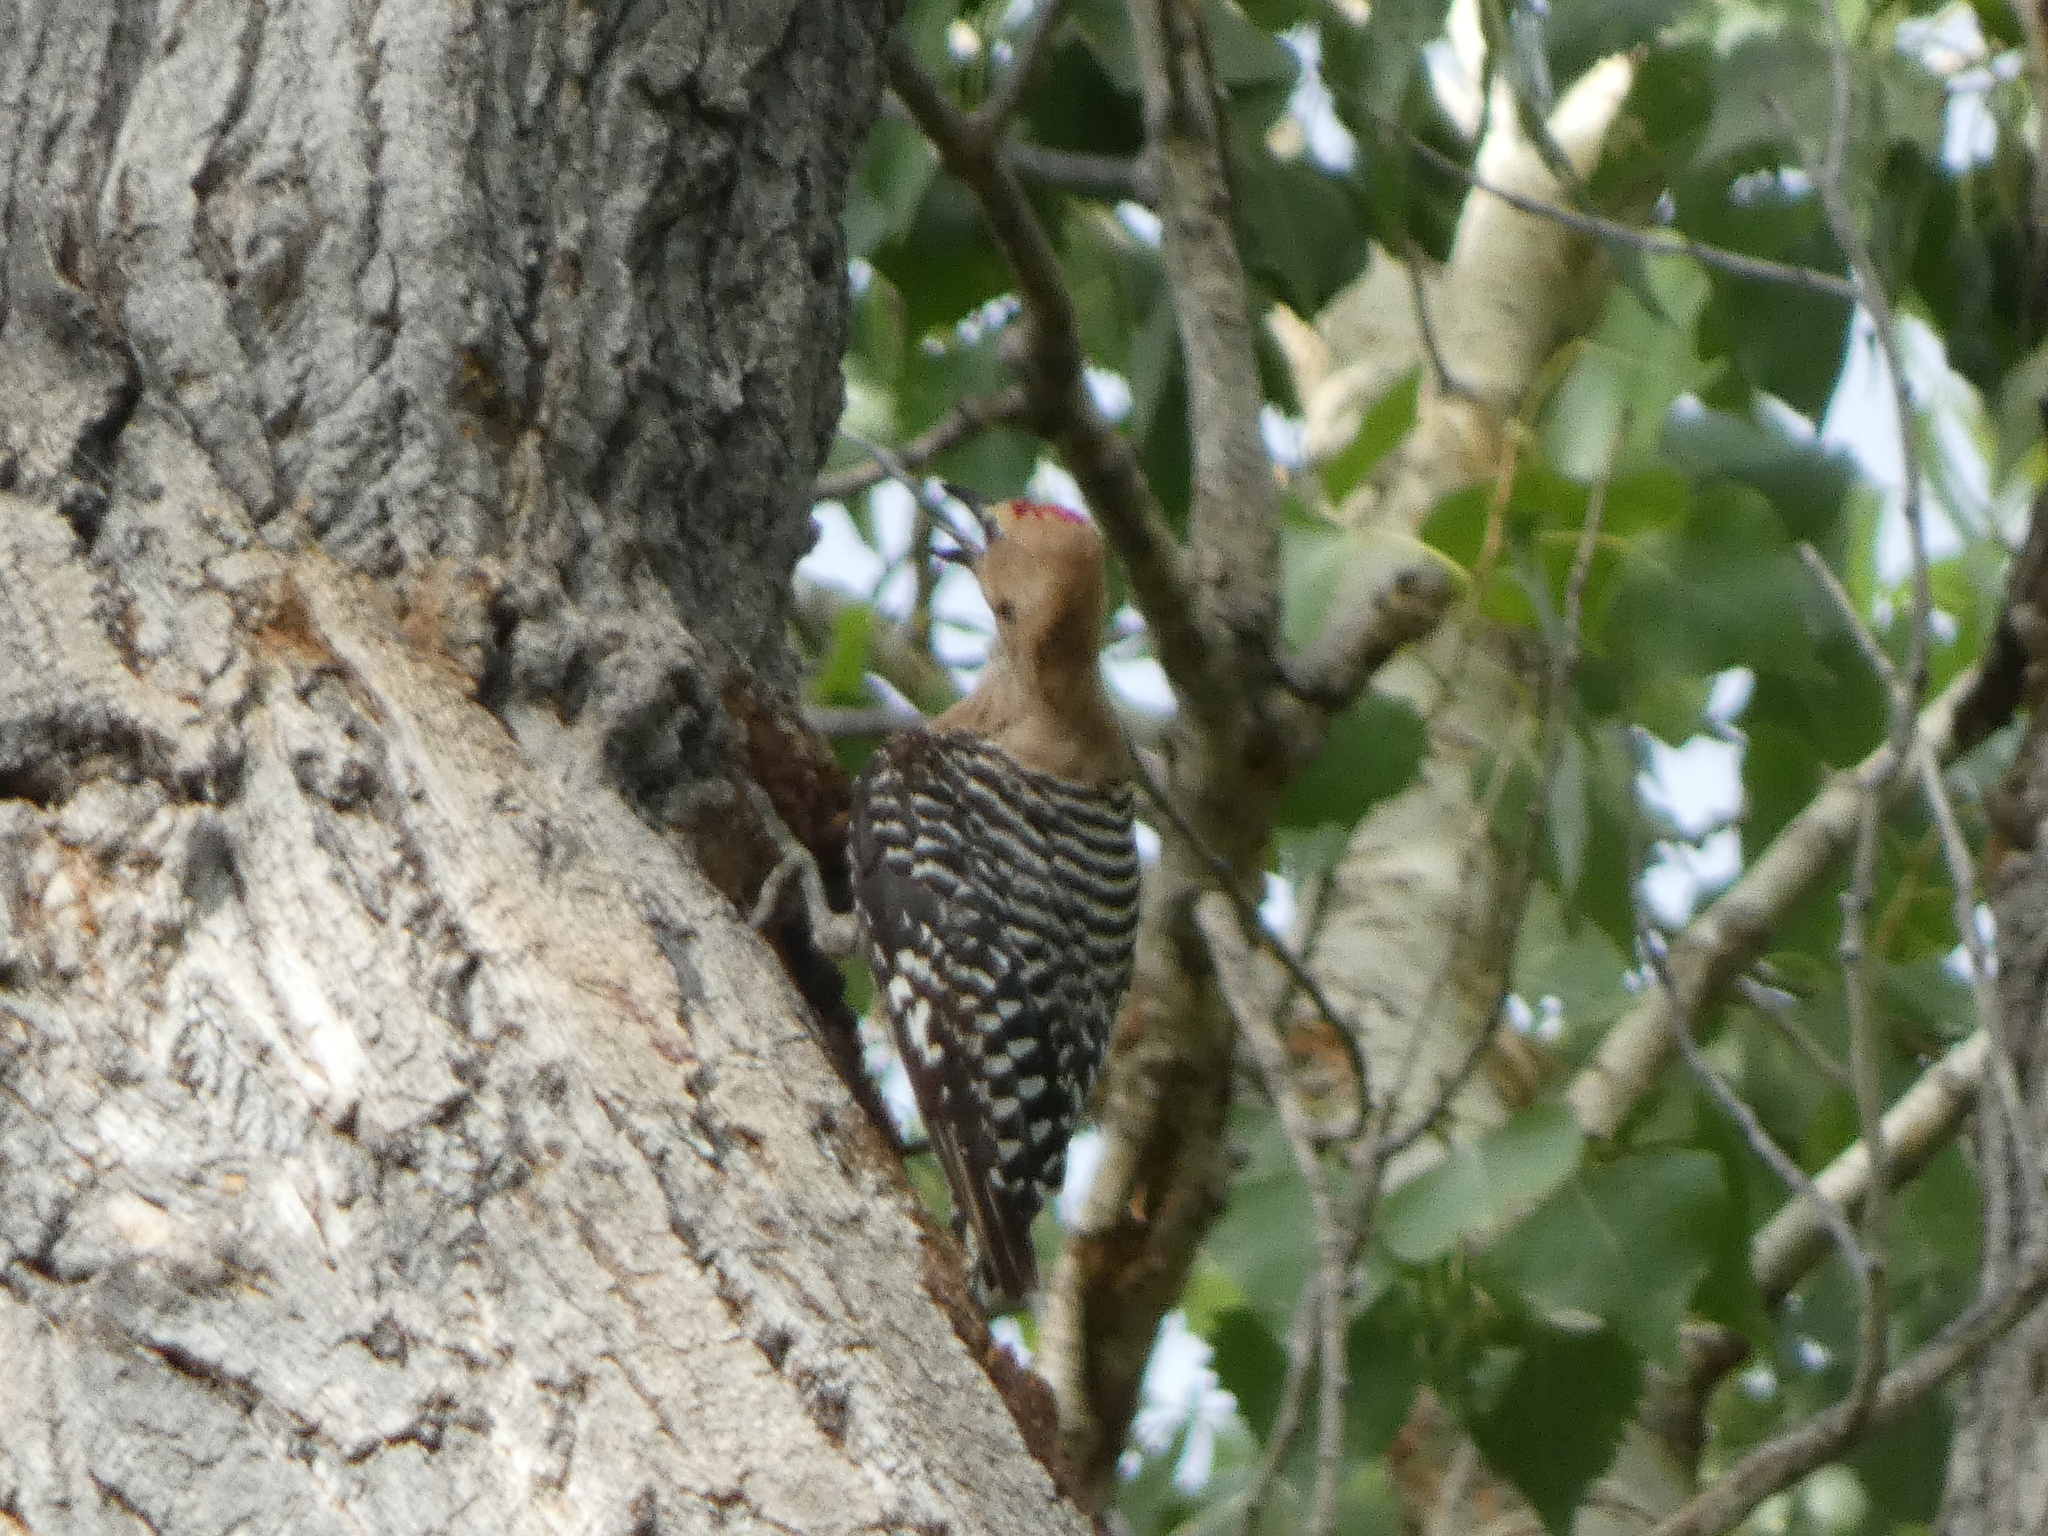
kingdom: Animalia
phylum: Chordata
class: Aves
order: Piciformes
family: Picidae
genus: Melanerpes
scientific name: Melanerpes uropygialis
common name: Gila woodpecker
